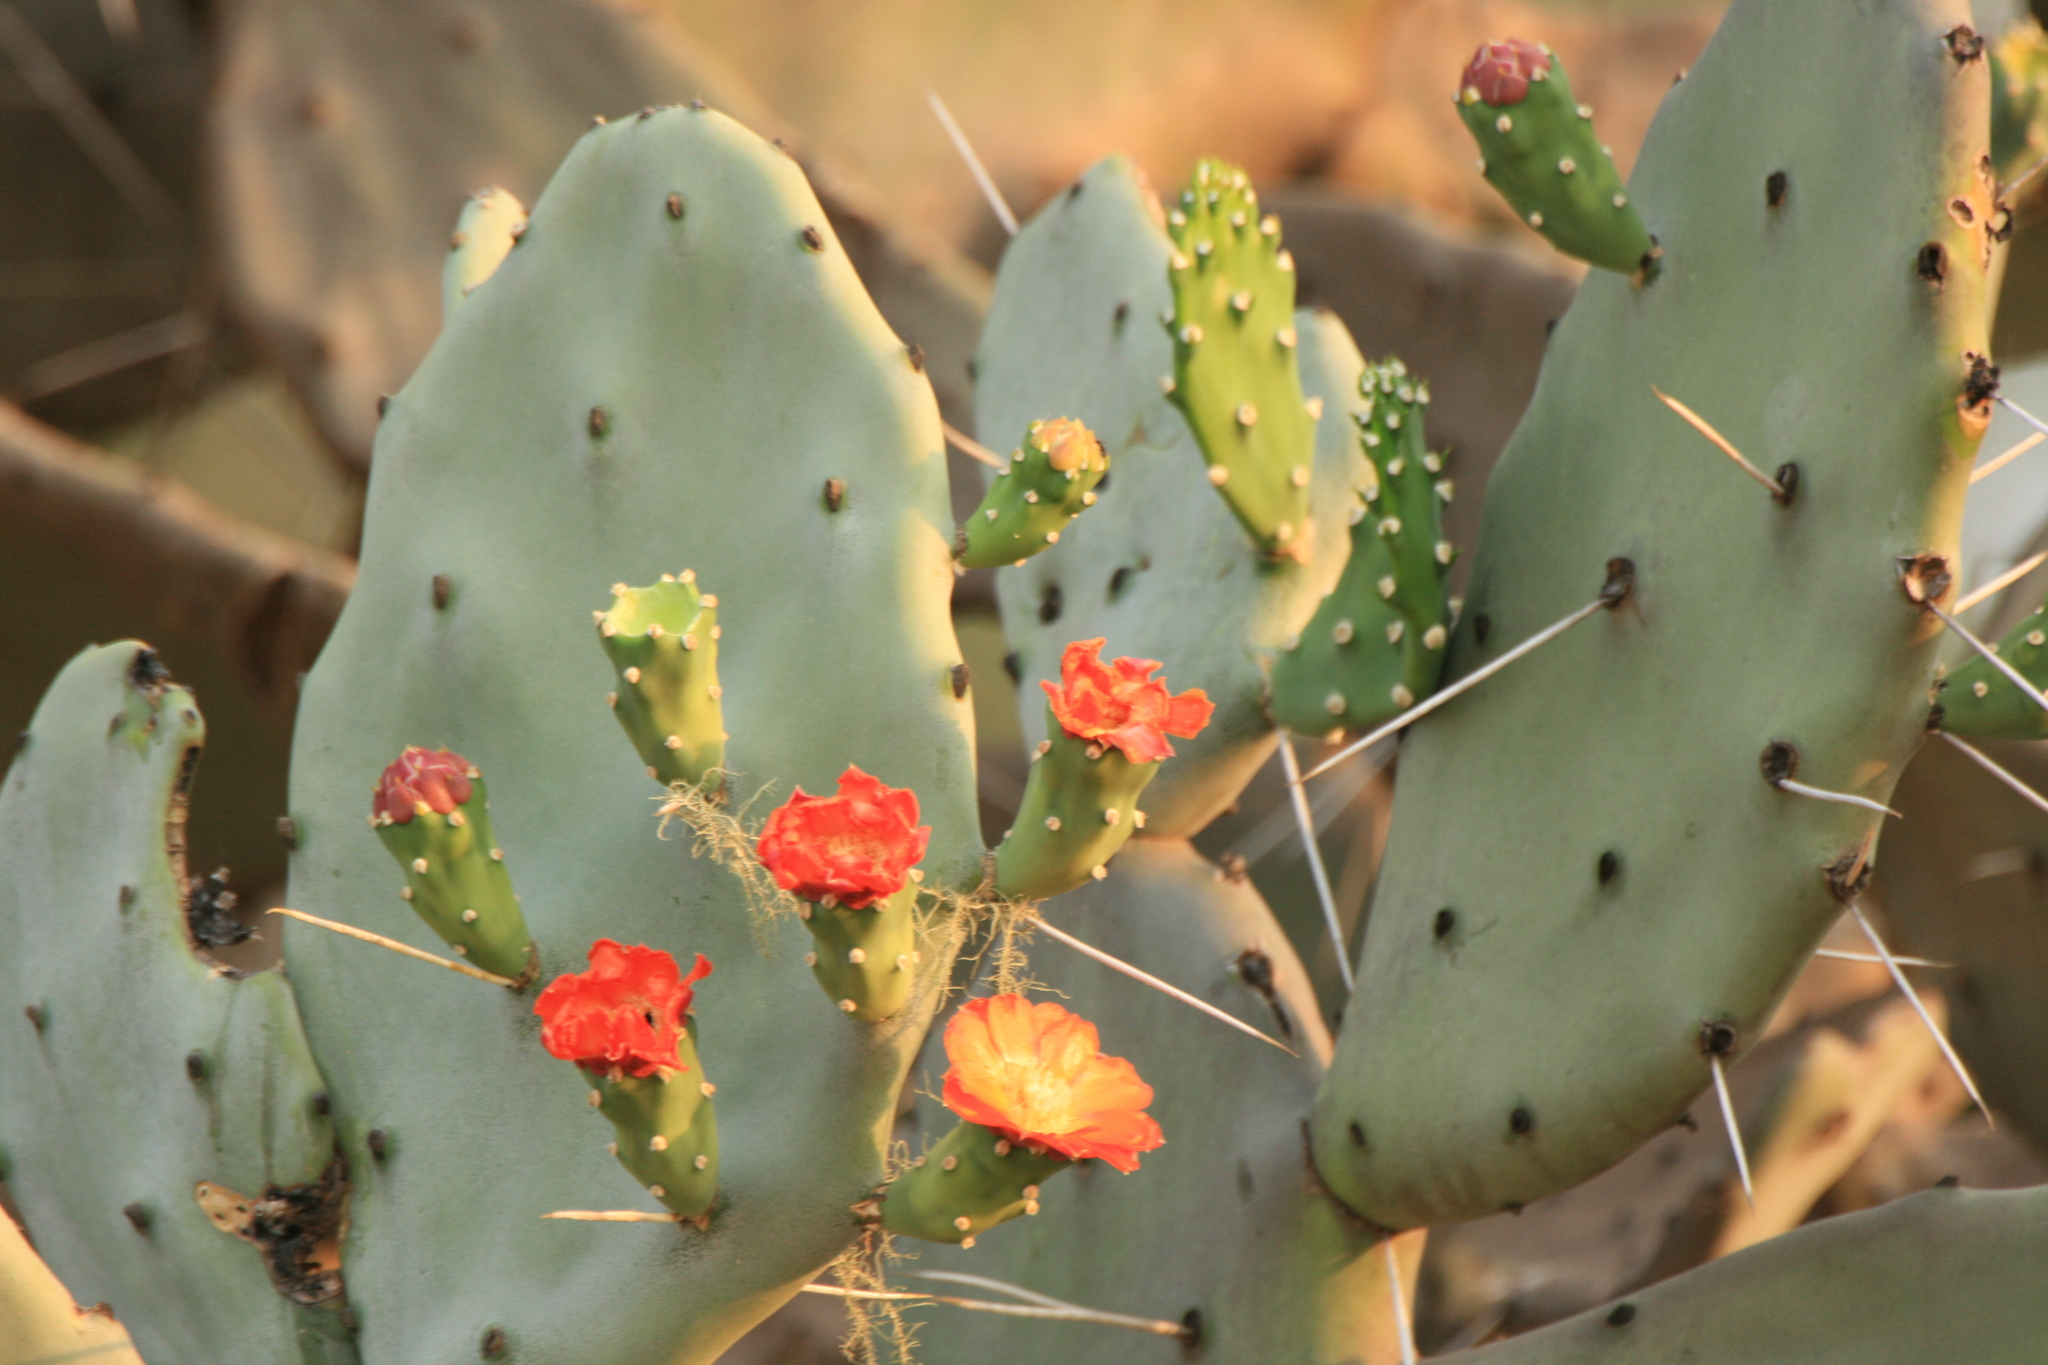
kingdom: Plantae
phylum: Tracheophyta
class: Magnoliopsida
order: Caryophyllales
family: Cactaceae
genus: Opuntia
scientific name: Opuntia quimilo
